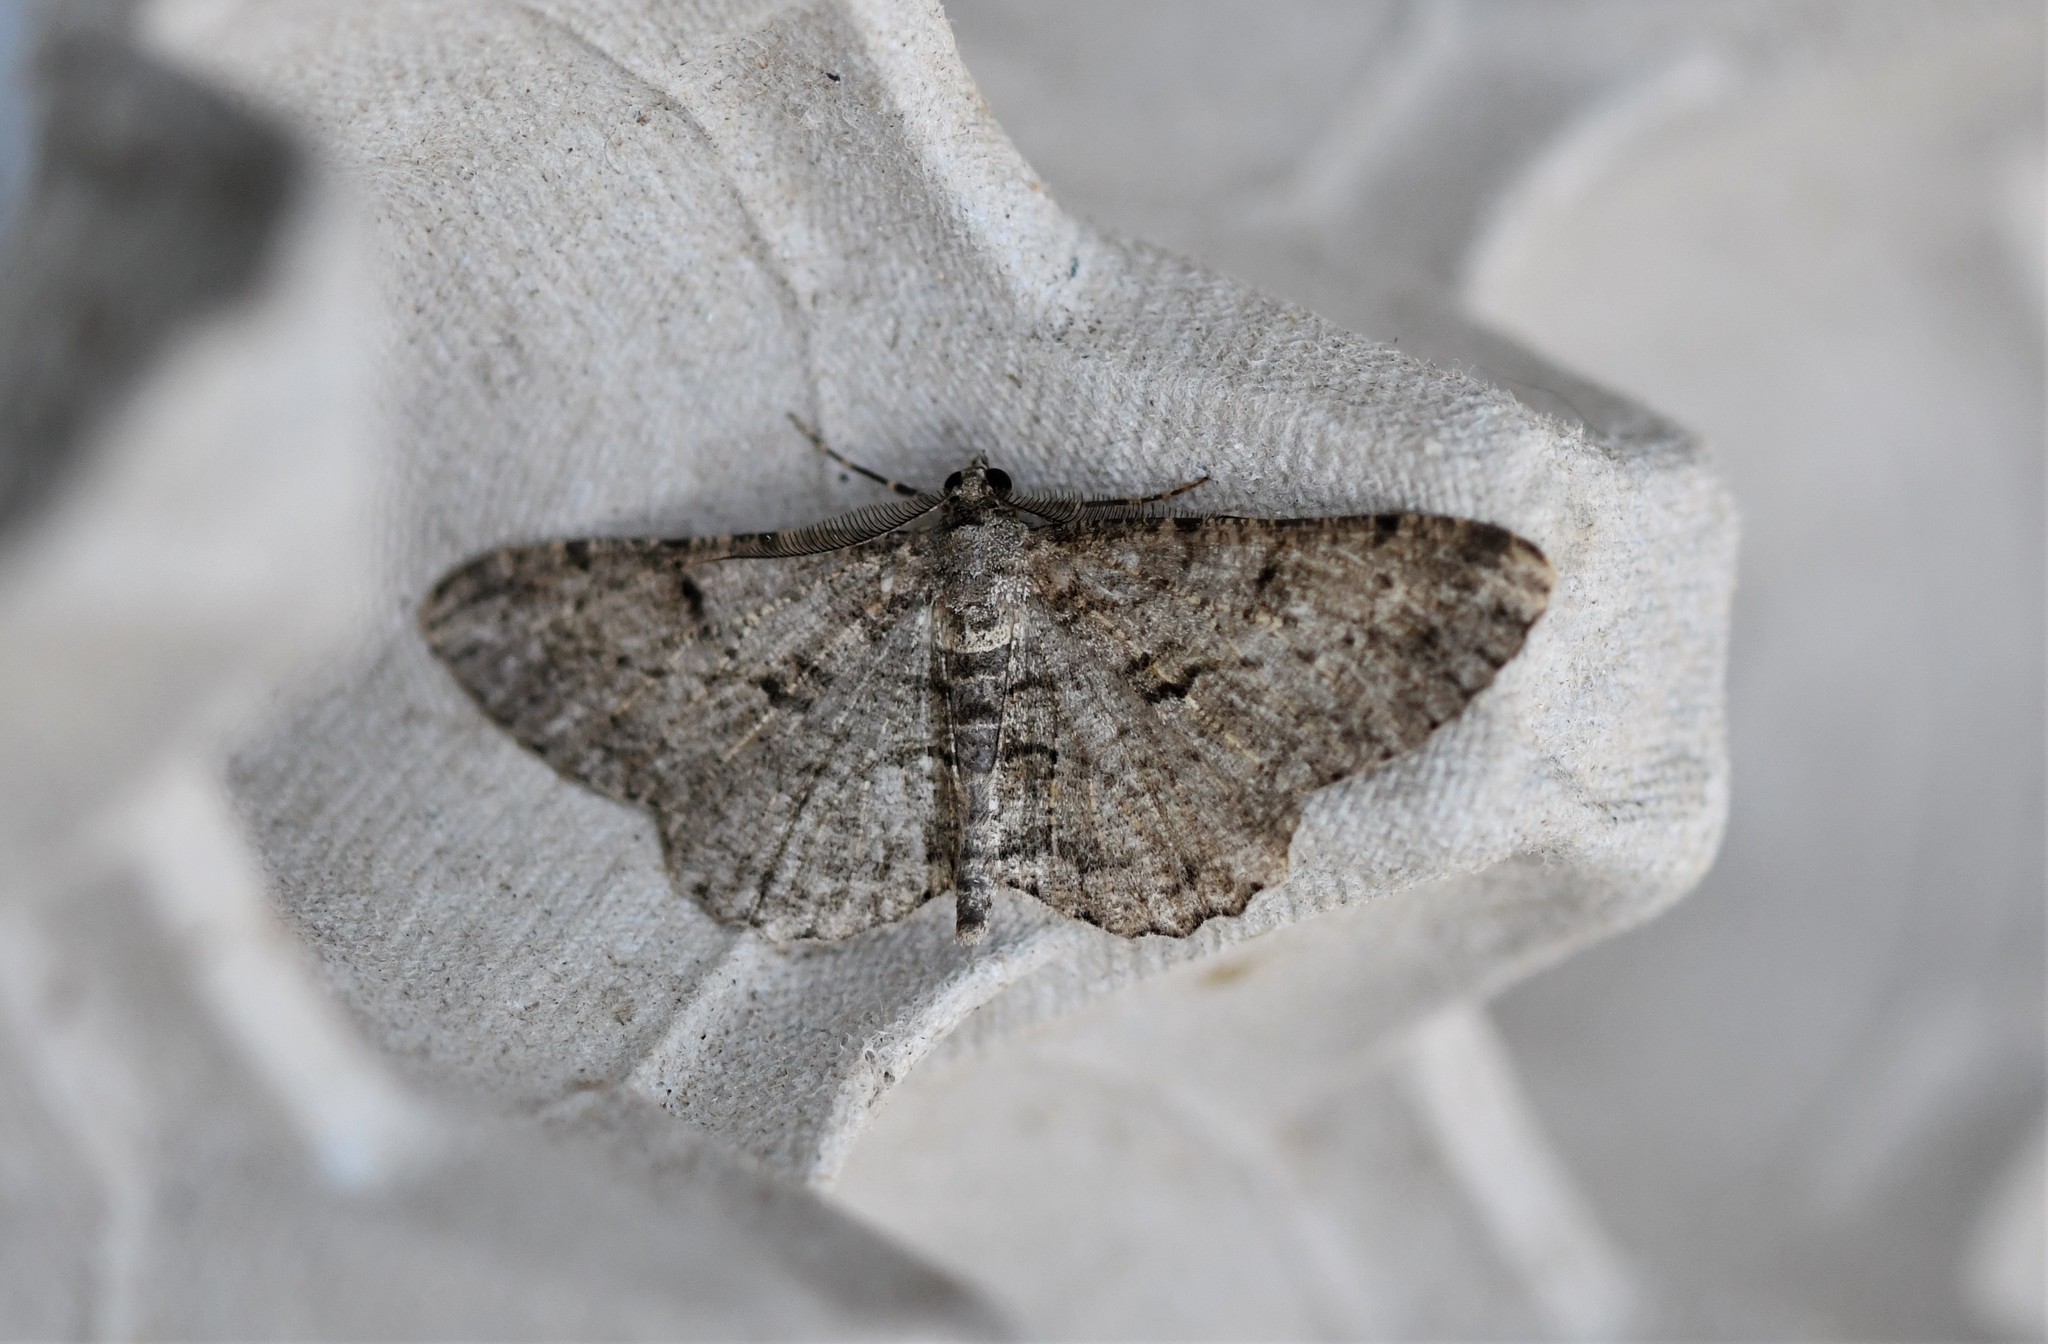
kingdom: Animalia
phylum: Arthropoda
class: Insecta
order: Lepidoptera
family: Geometridae
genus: Peribatodes
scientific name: Peribatodes rhomboidaria
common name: Willow beauty
